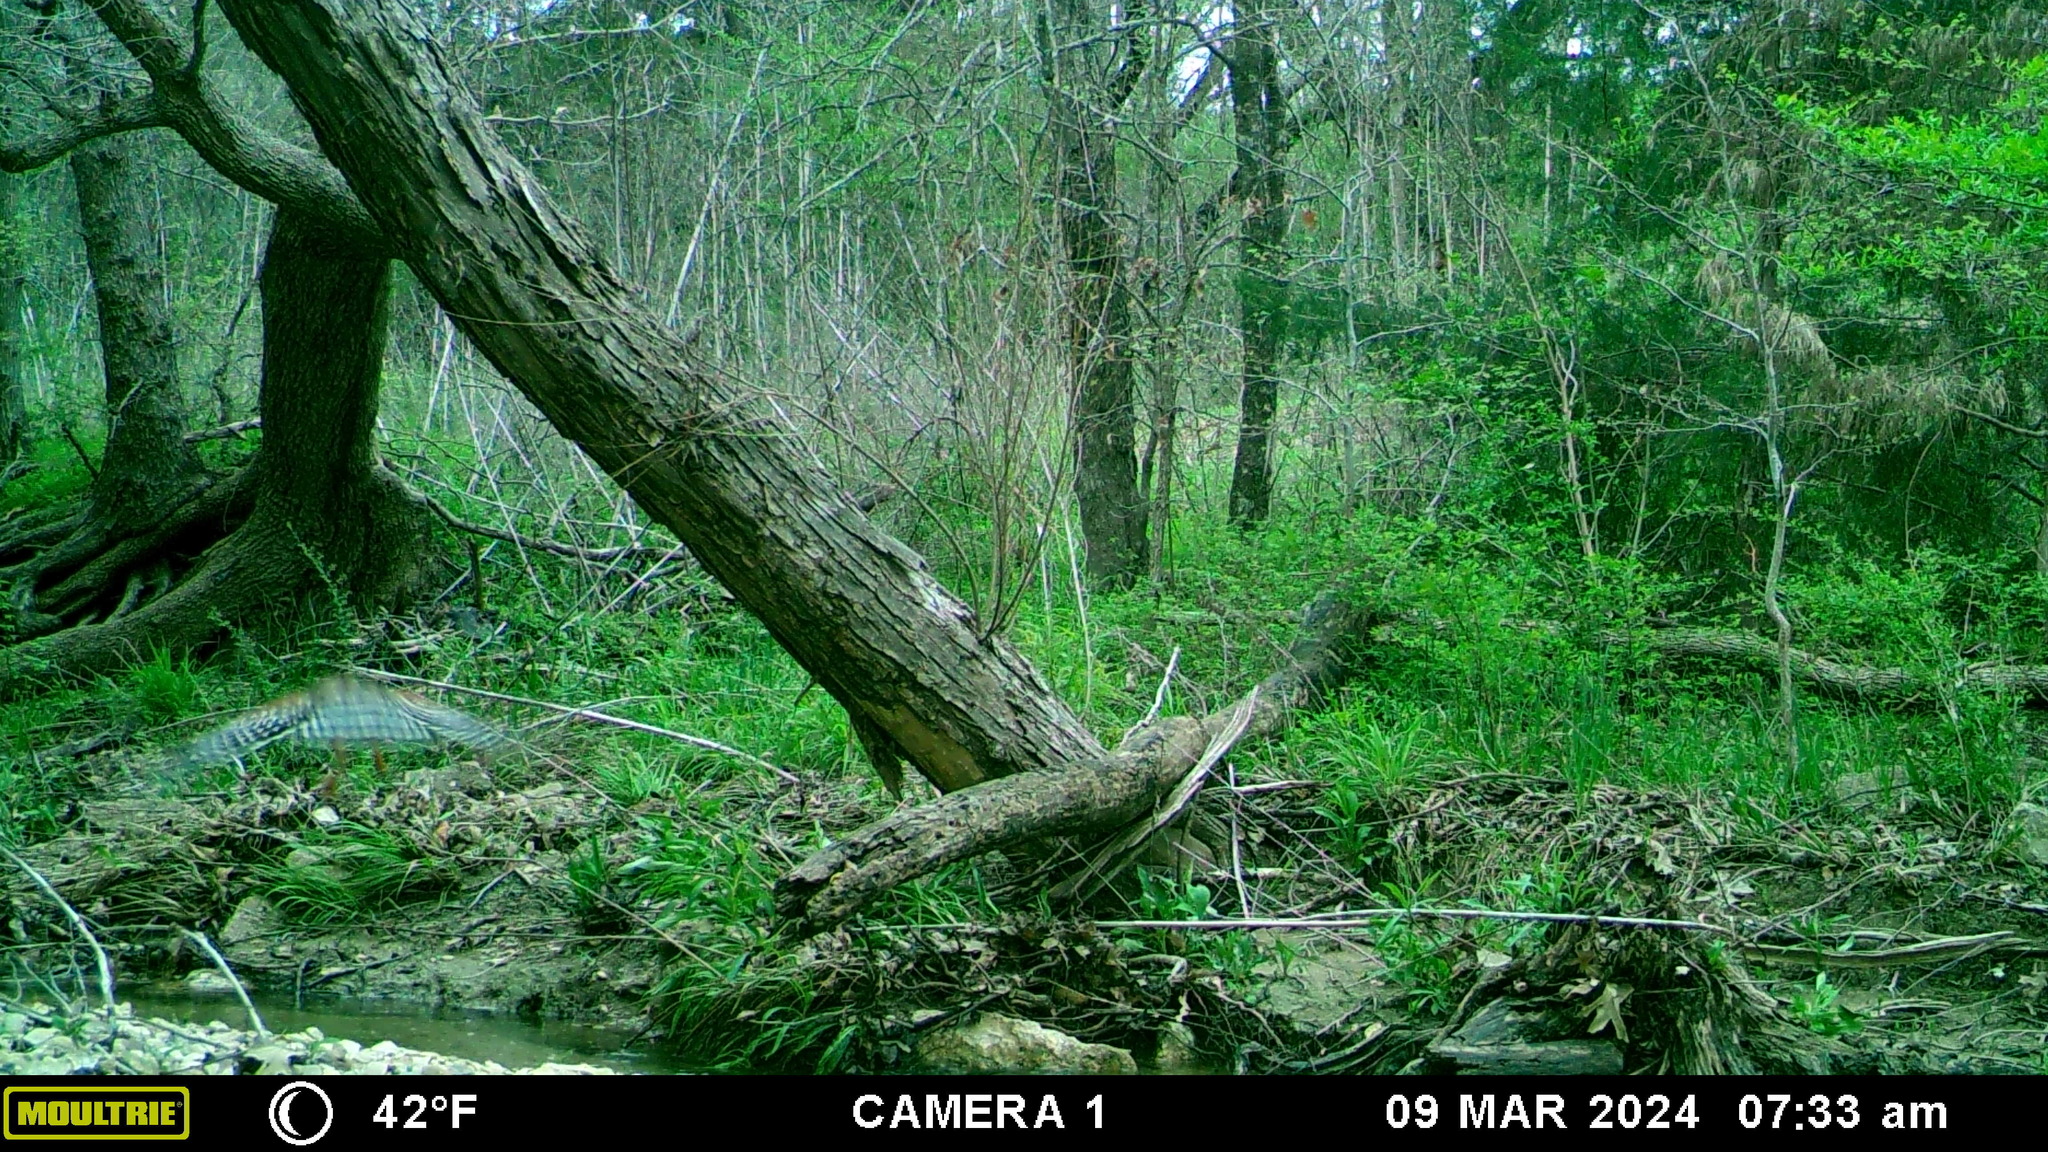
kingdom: Animalia
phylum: Chordata
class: Aves
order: Accipitriformes
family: Accipitridae
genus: Buteo
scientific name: Buteo lineatus
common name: Red-shouldered hawk
